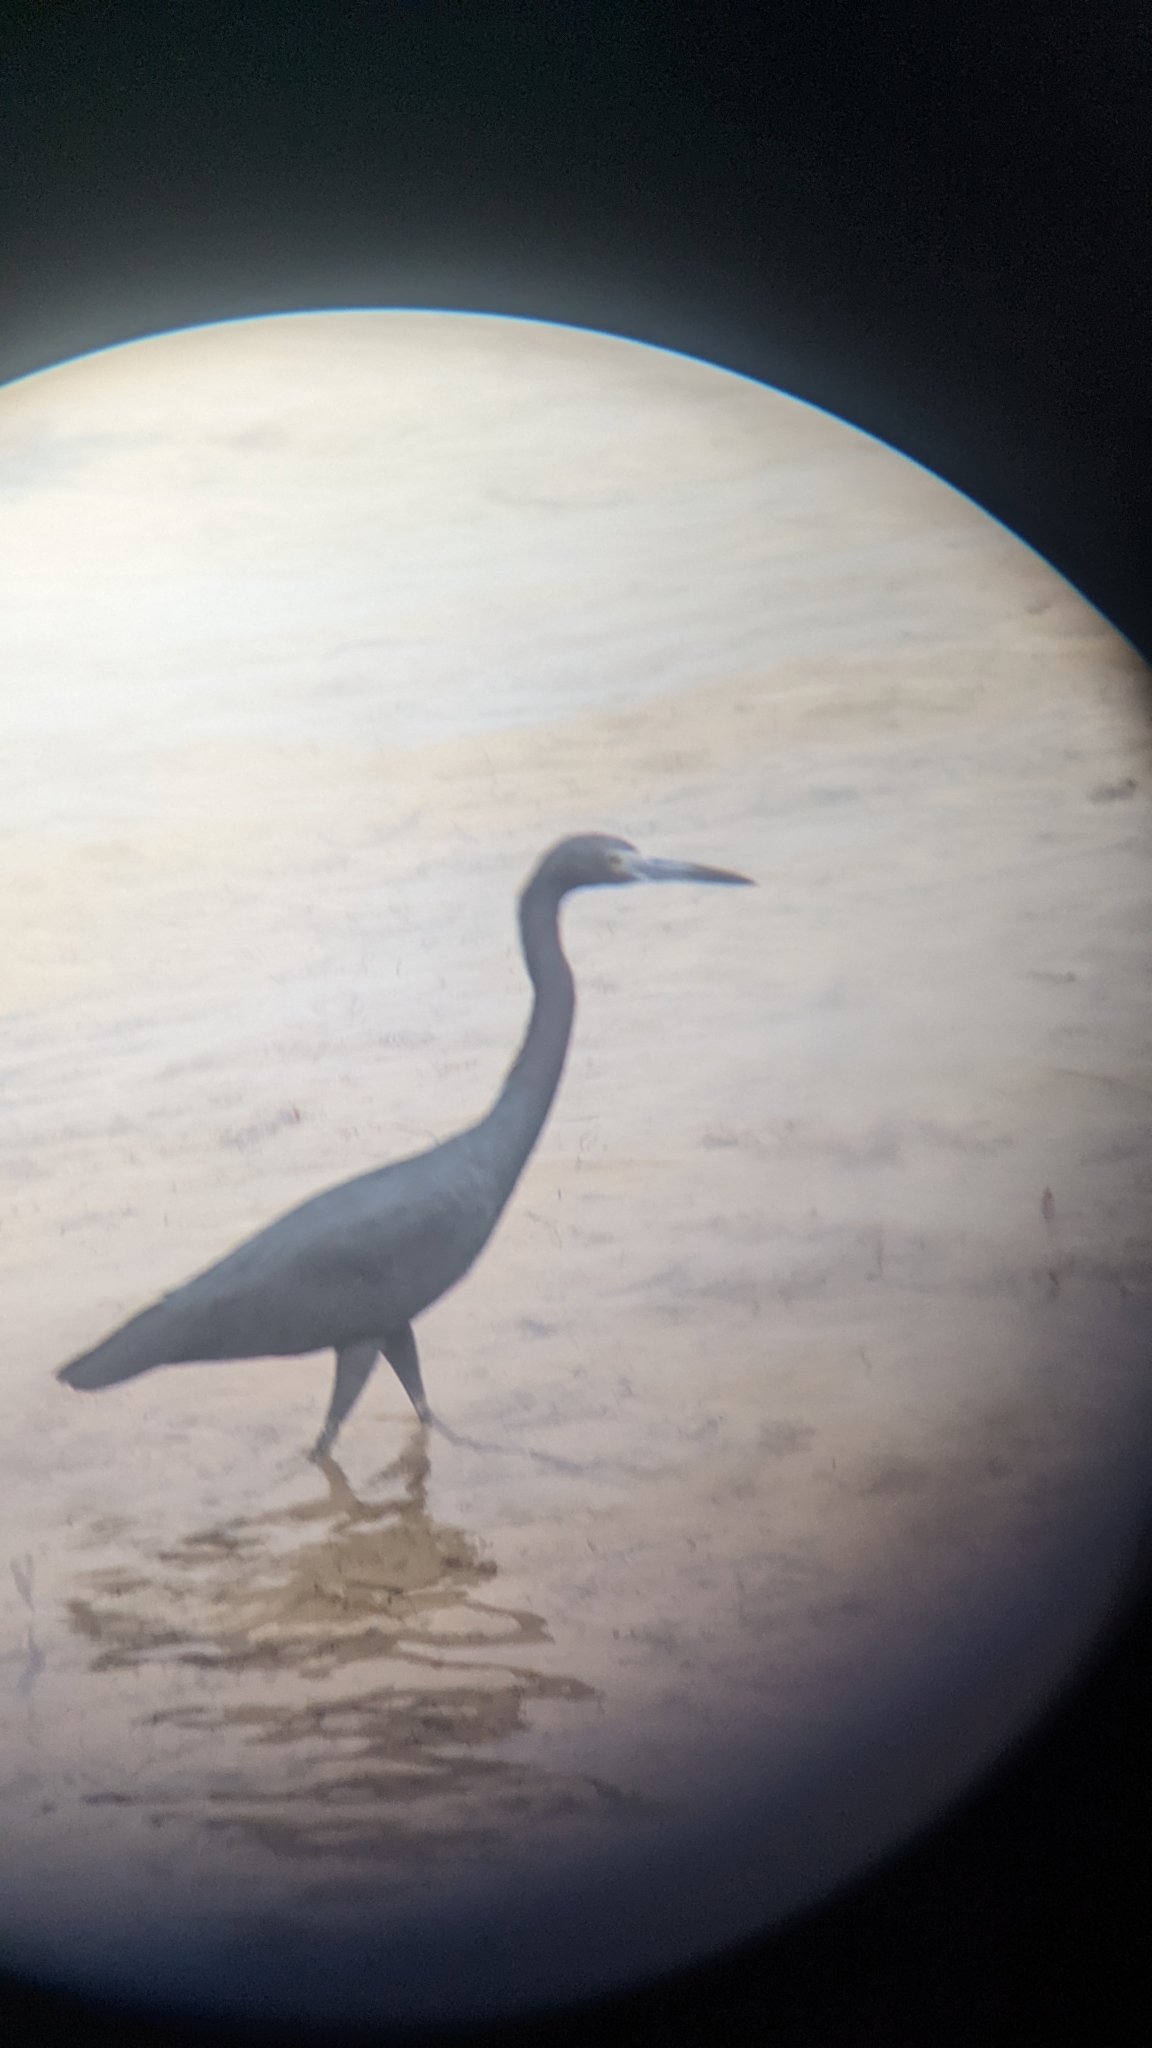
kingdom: Animalia
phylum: Chordata
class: Aves
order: Pelecaniformes
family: Ardeidae
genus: Egretta
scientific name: Egretta caerulea
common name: Little blue heron
